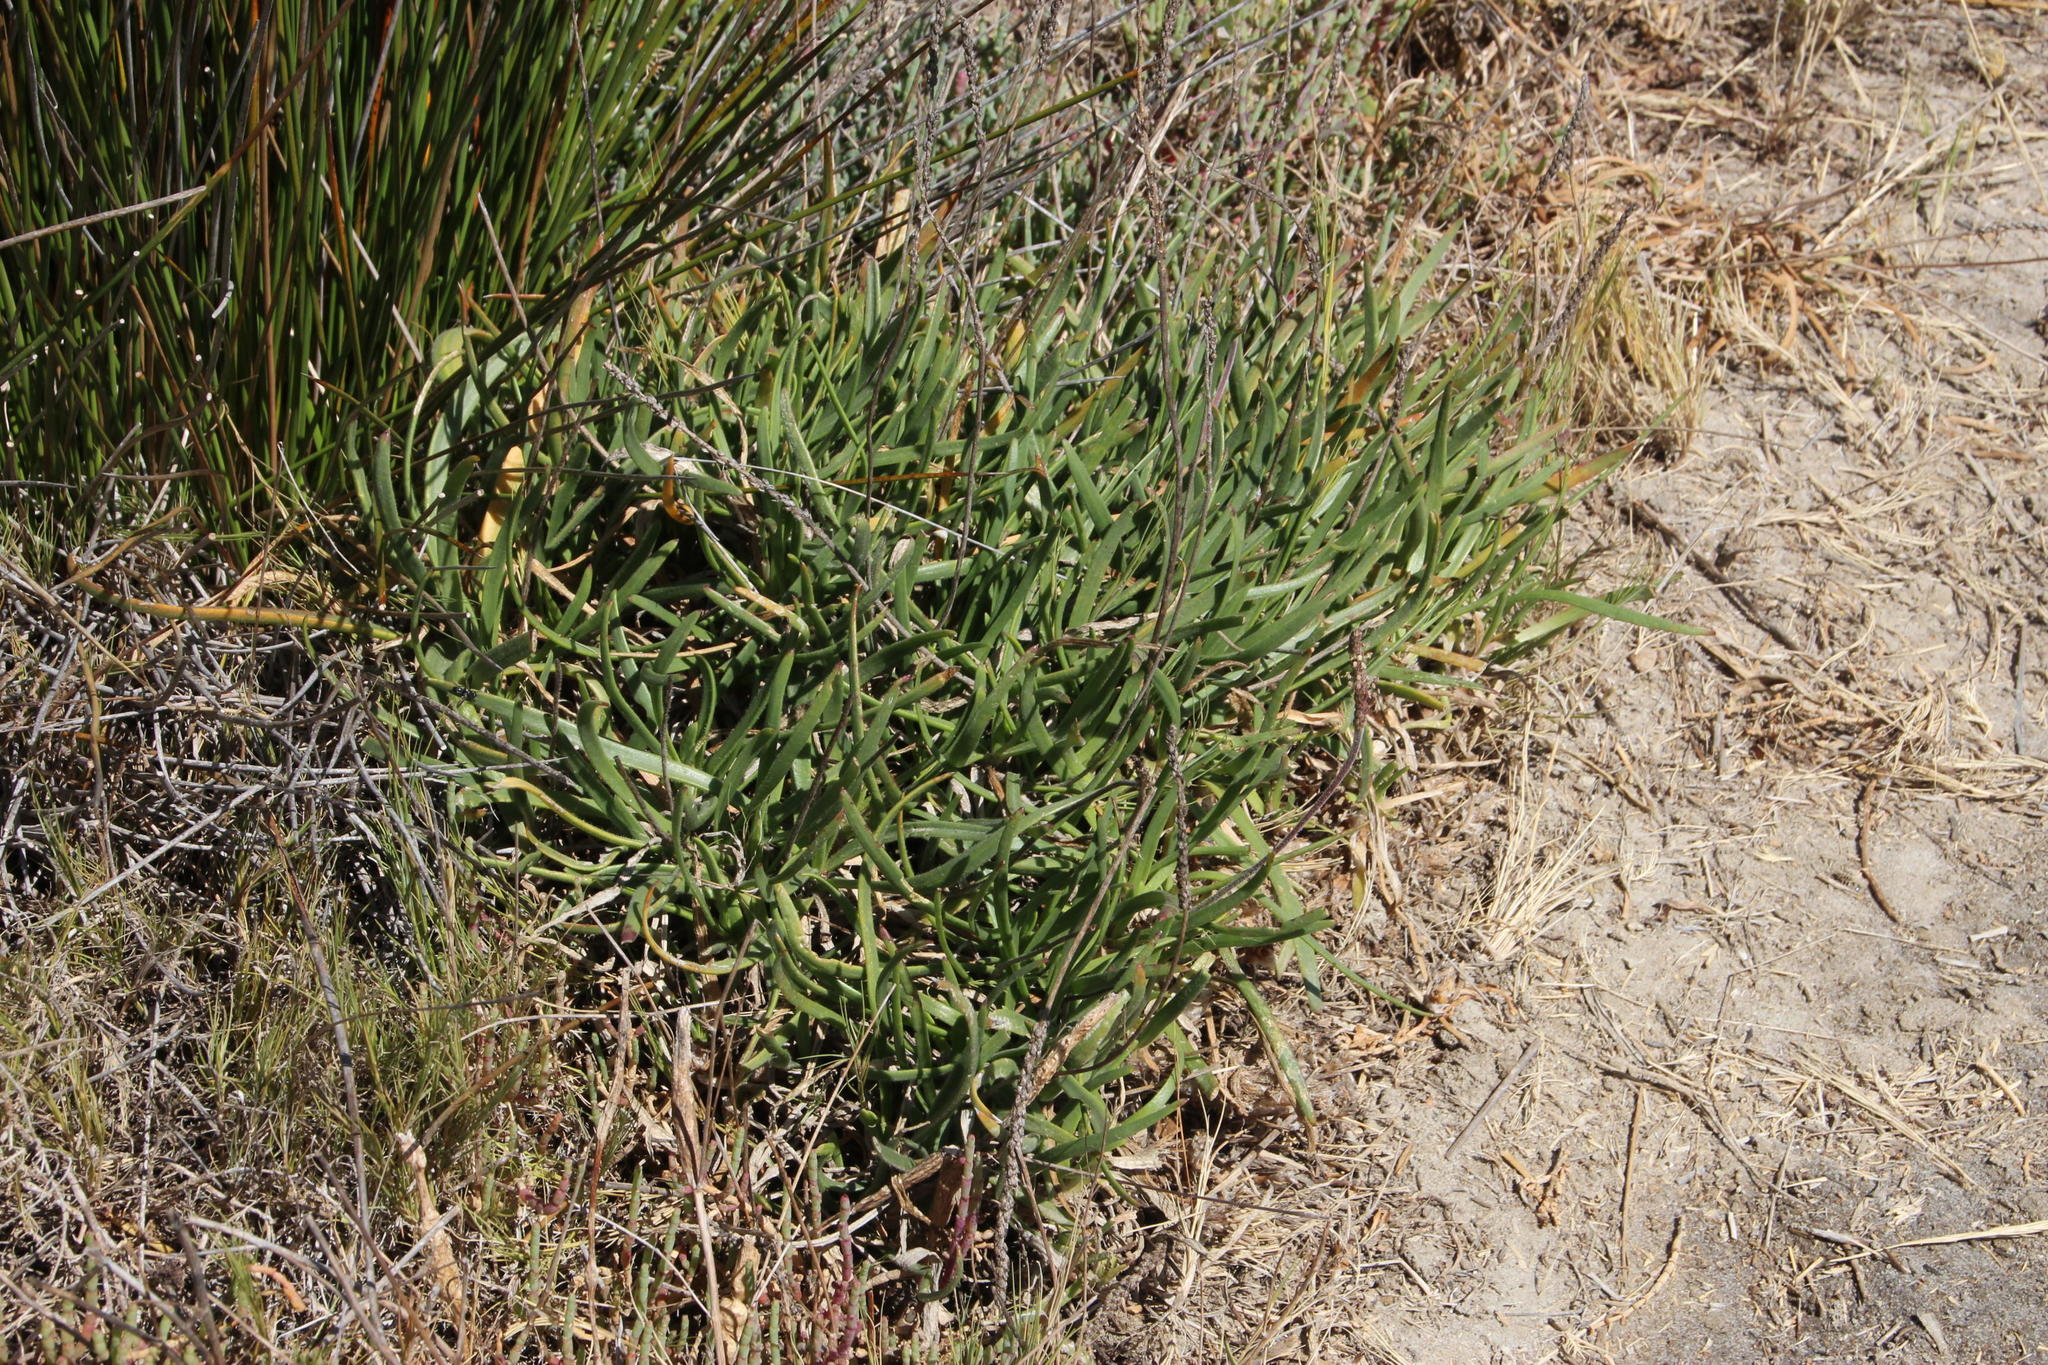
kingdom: Plantae
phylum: Tracheophyta
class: Magnoliopsida
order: Lamiales
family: Plantaginaceae
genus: Plantago
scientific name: Plantago carnosa
